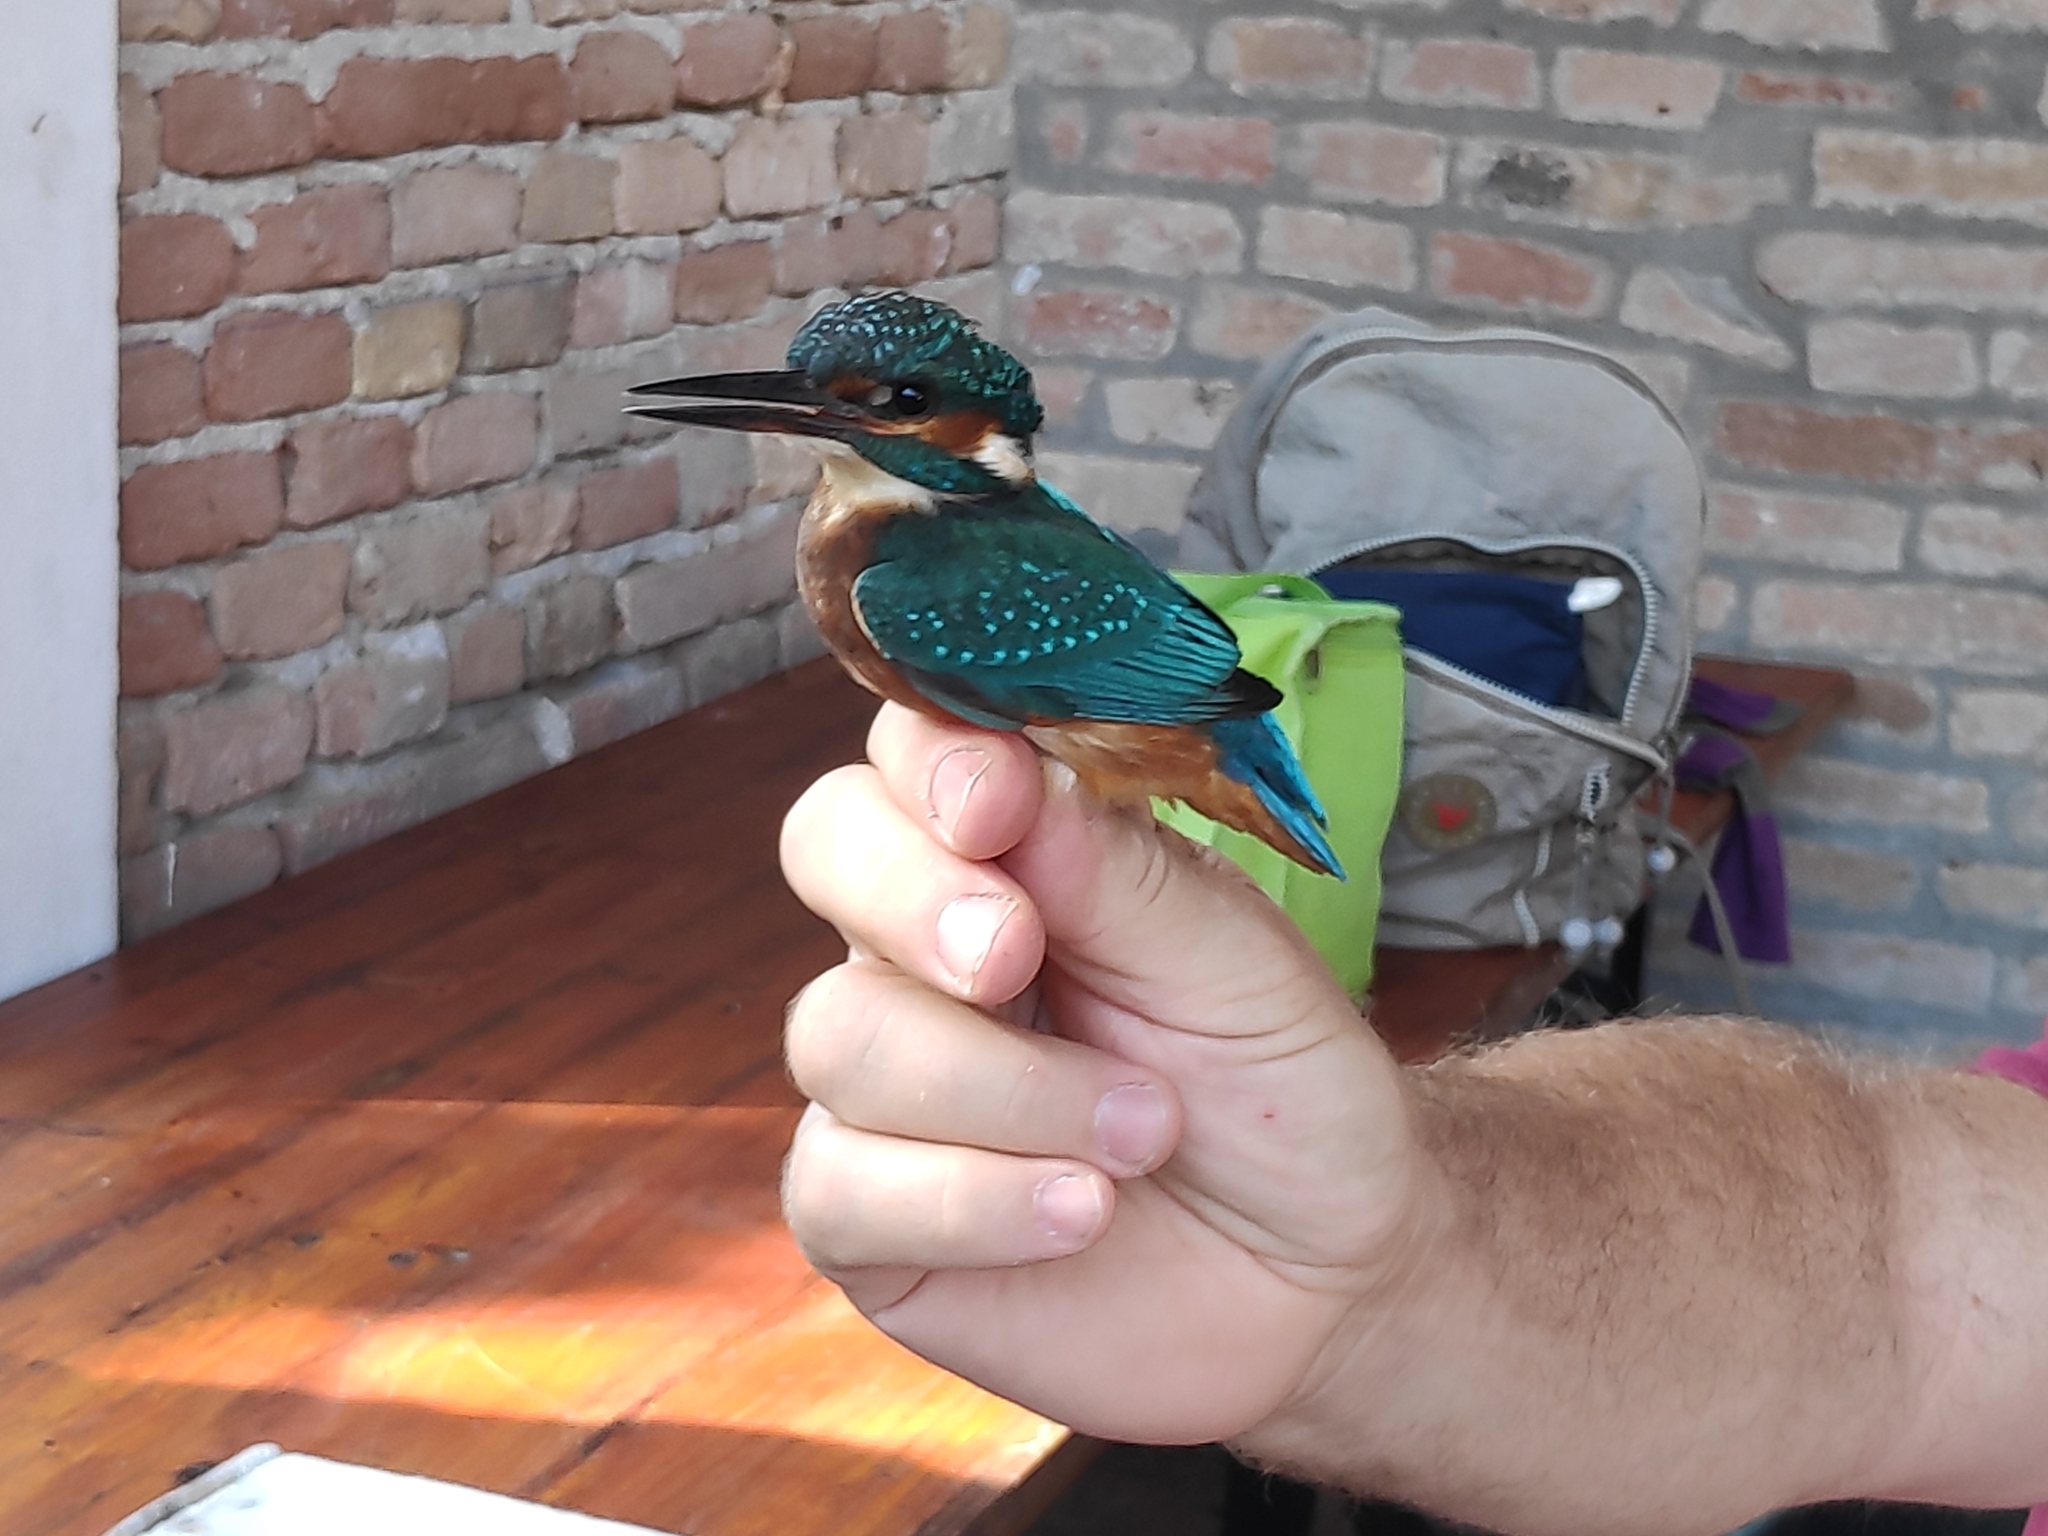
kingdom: Animalia
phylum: Chordata
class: Aves
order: Coraciiformes
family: Alcedinidae
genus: Alcedo
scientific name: Alcedo atthis
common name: Common kingfisher
